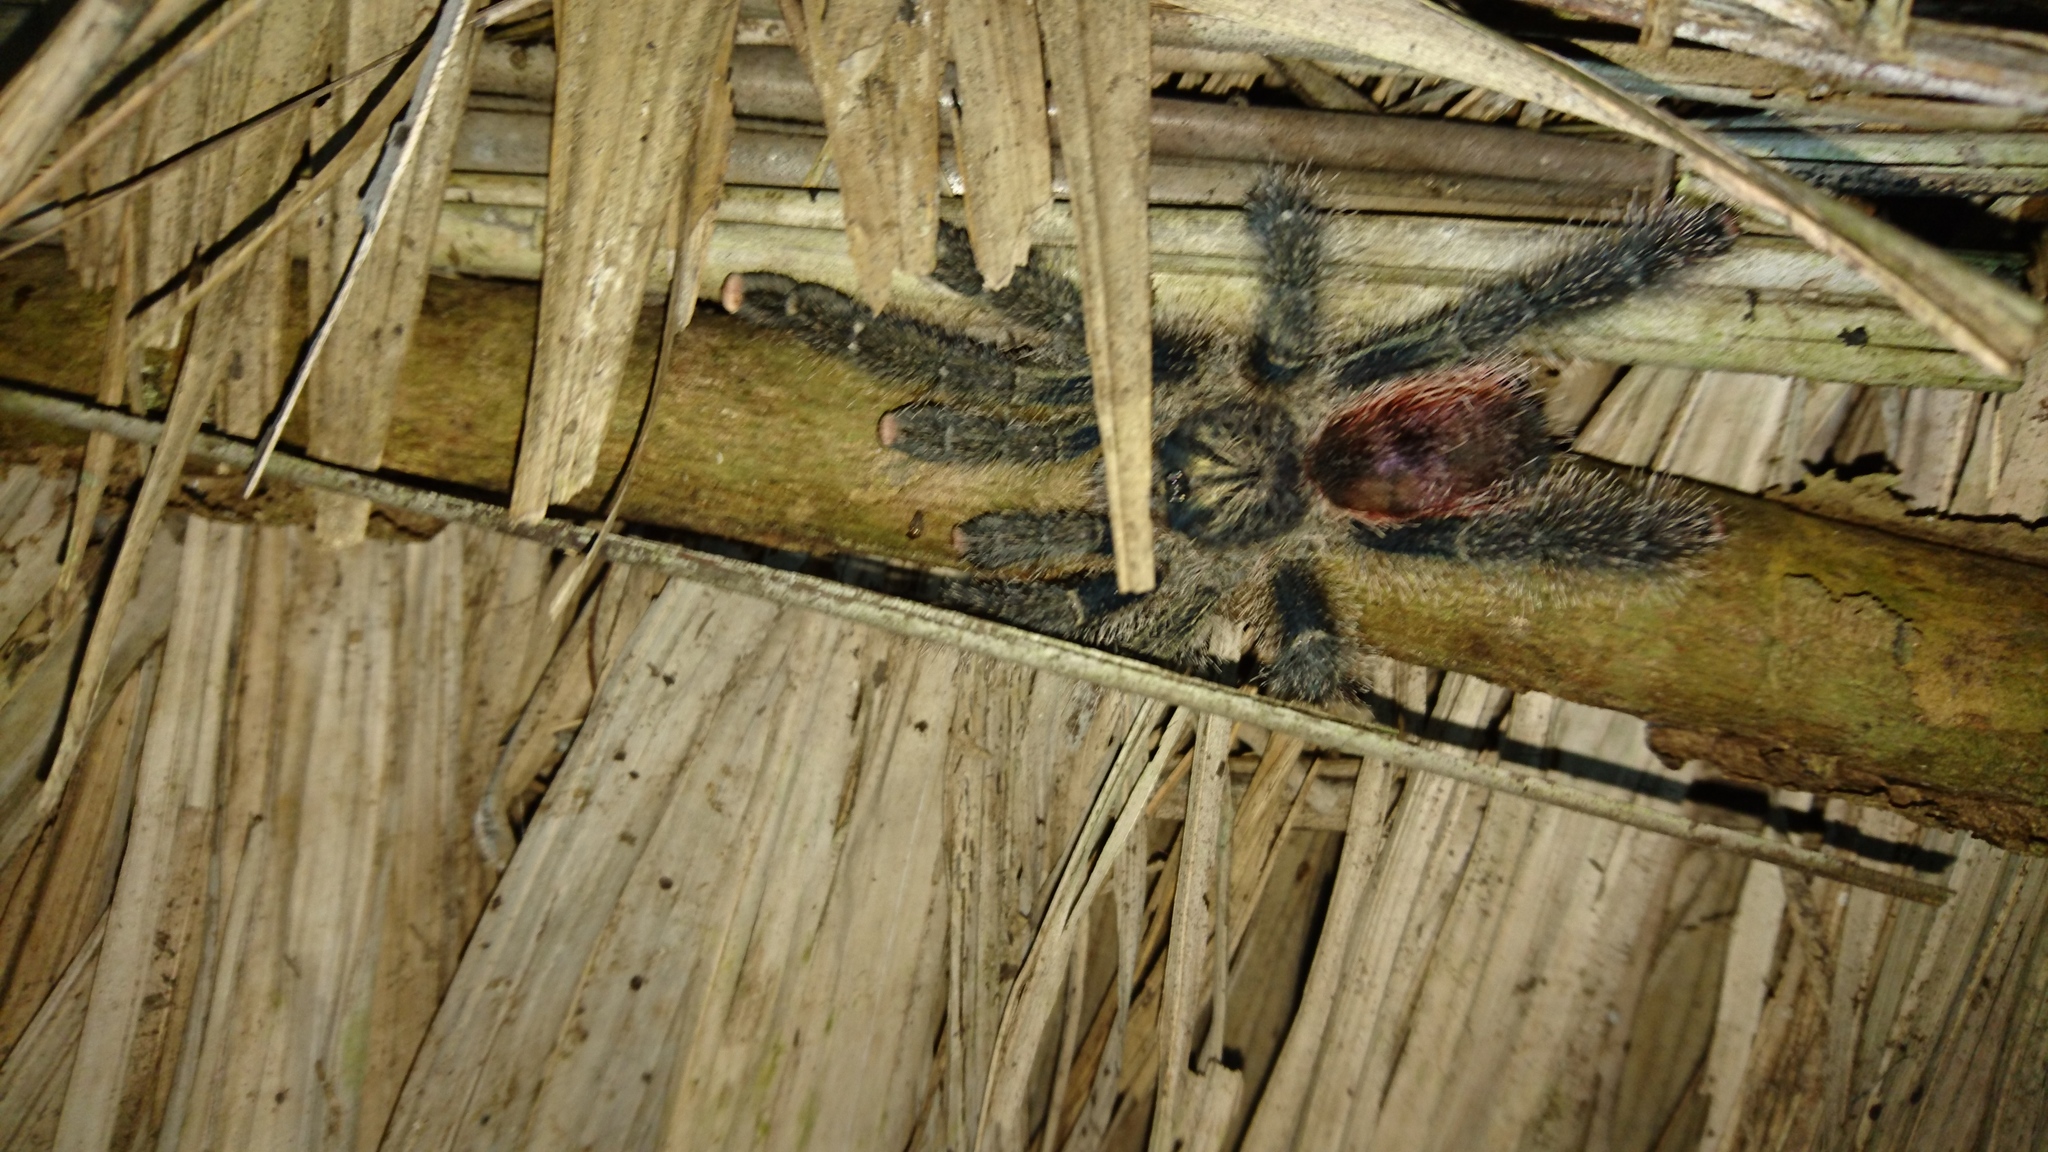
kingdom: Animalia
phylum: Arthropoda
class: Arachnida
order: Araneae
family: Theraphosidae
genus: Avicularia
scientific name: Avicularia juruensis
